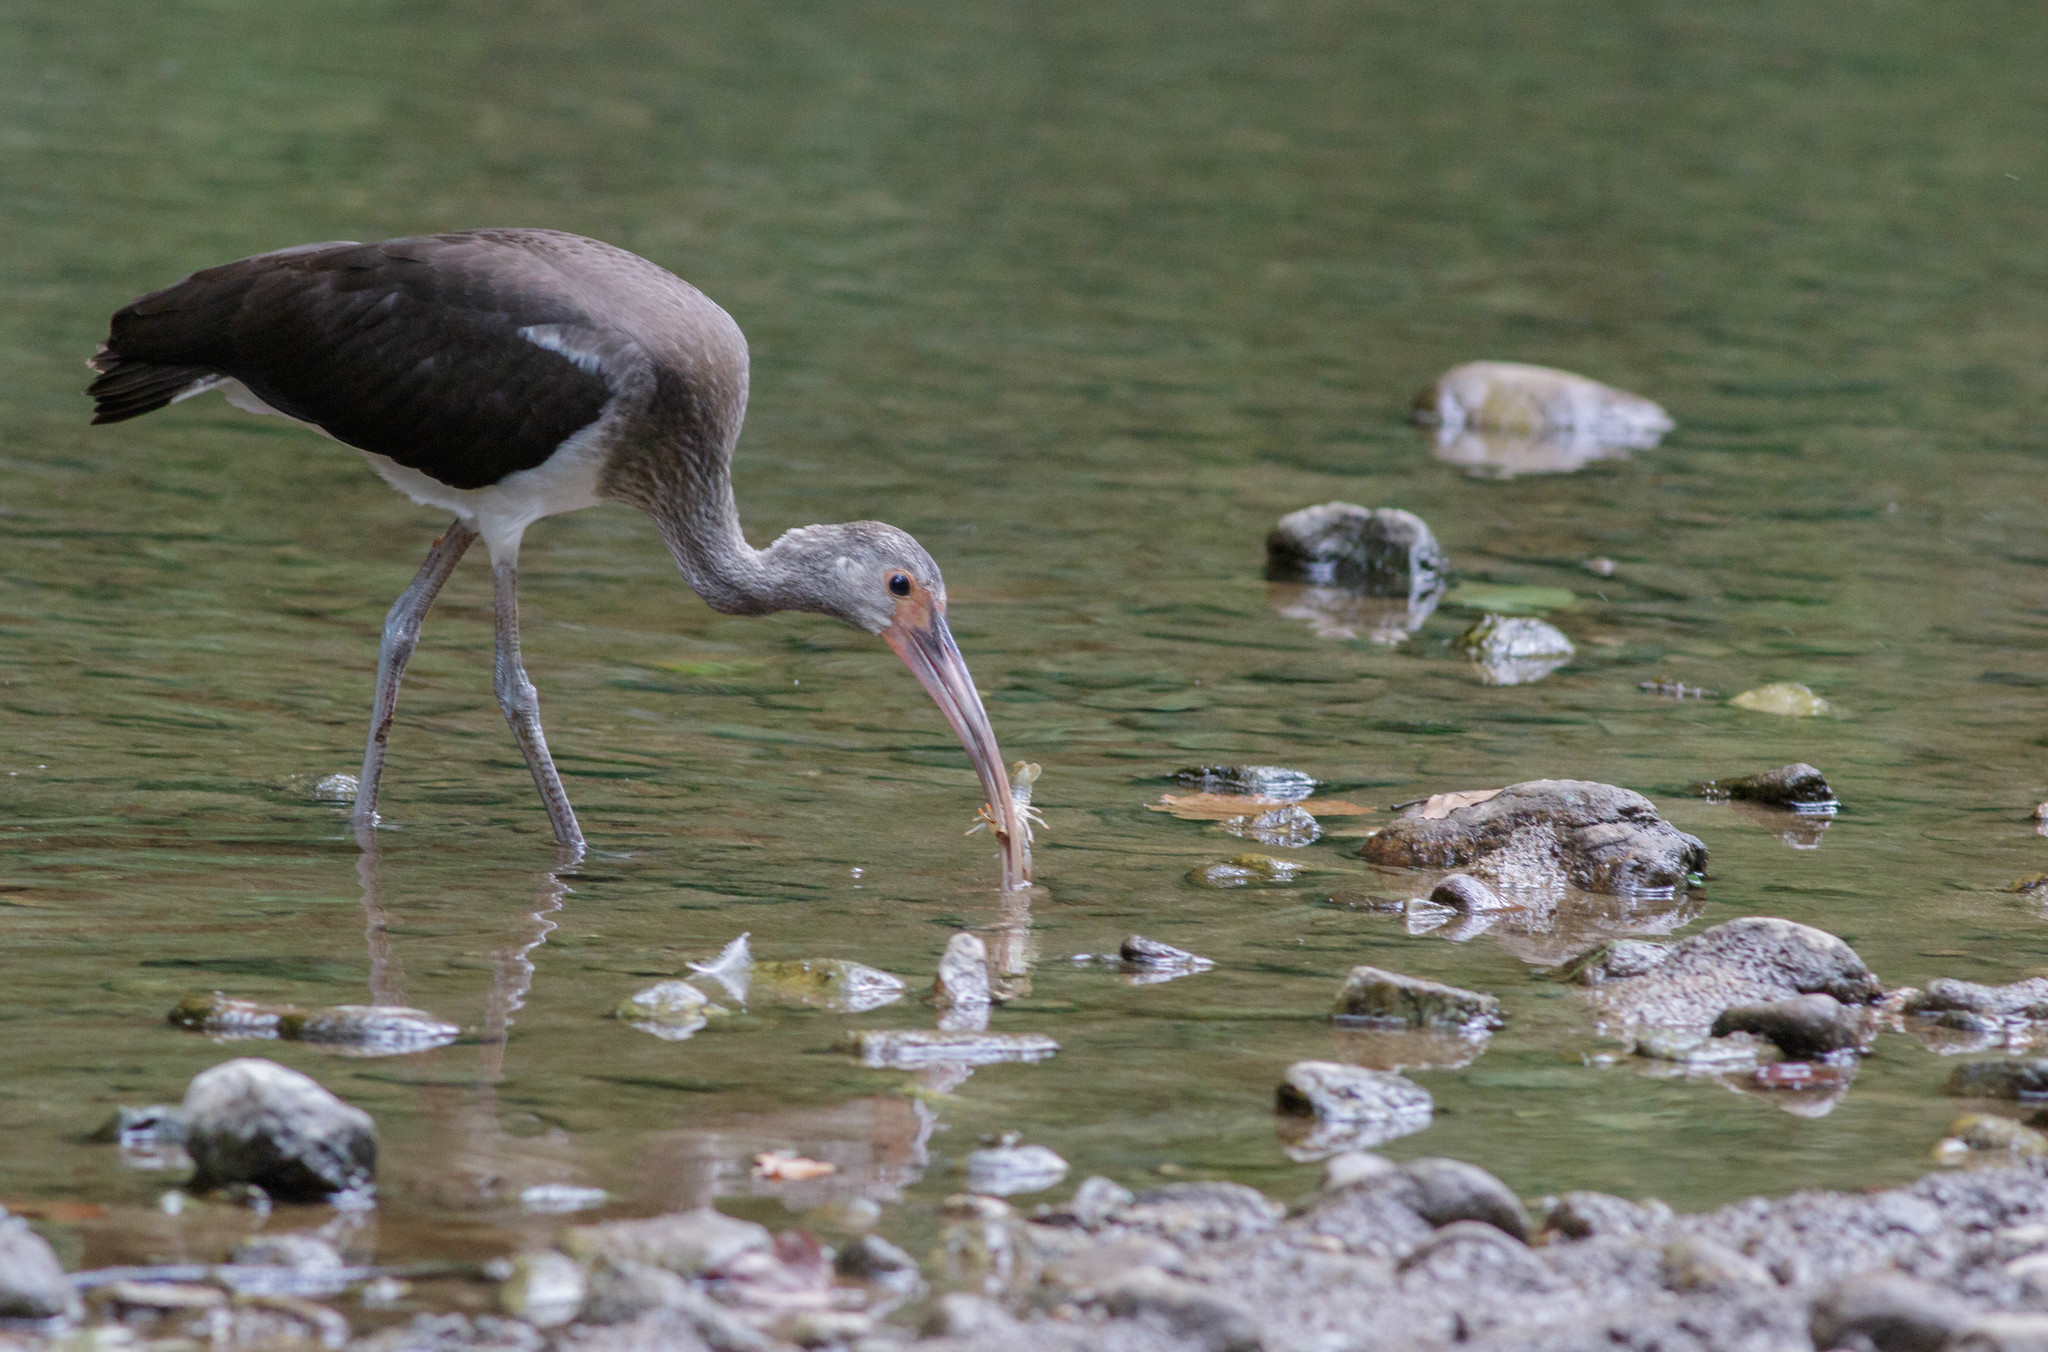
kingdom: Animalia
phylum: Chordata
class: Aves
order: Pelecaniformes
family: Threskiornithidae
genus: Eudocimus
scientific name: Eudocimus albus
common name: White ibis
